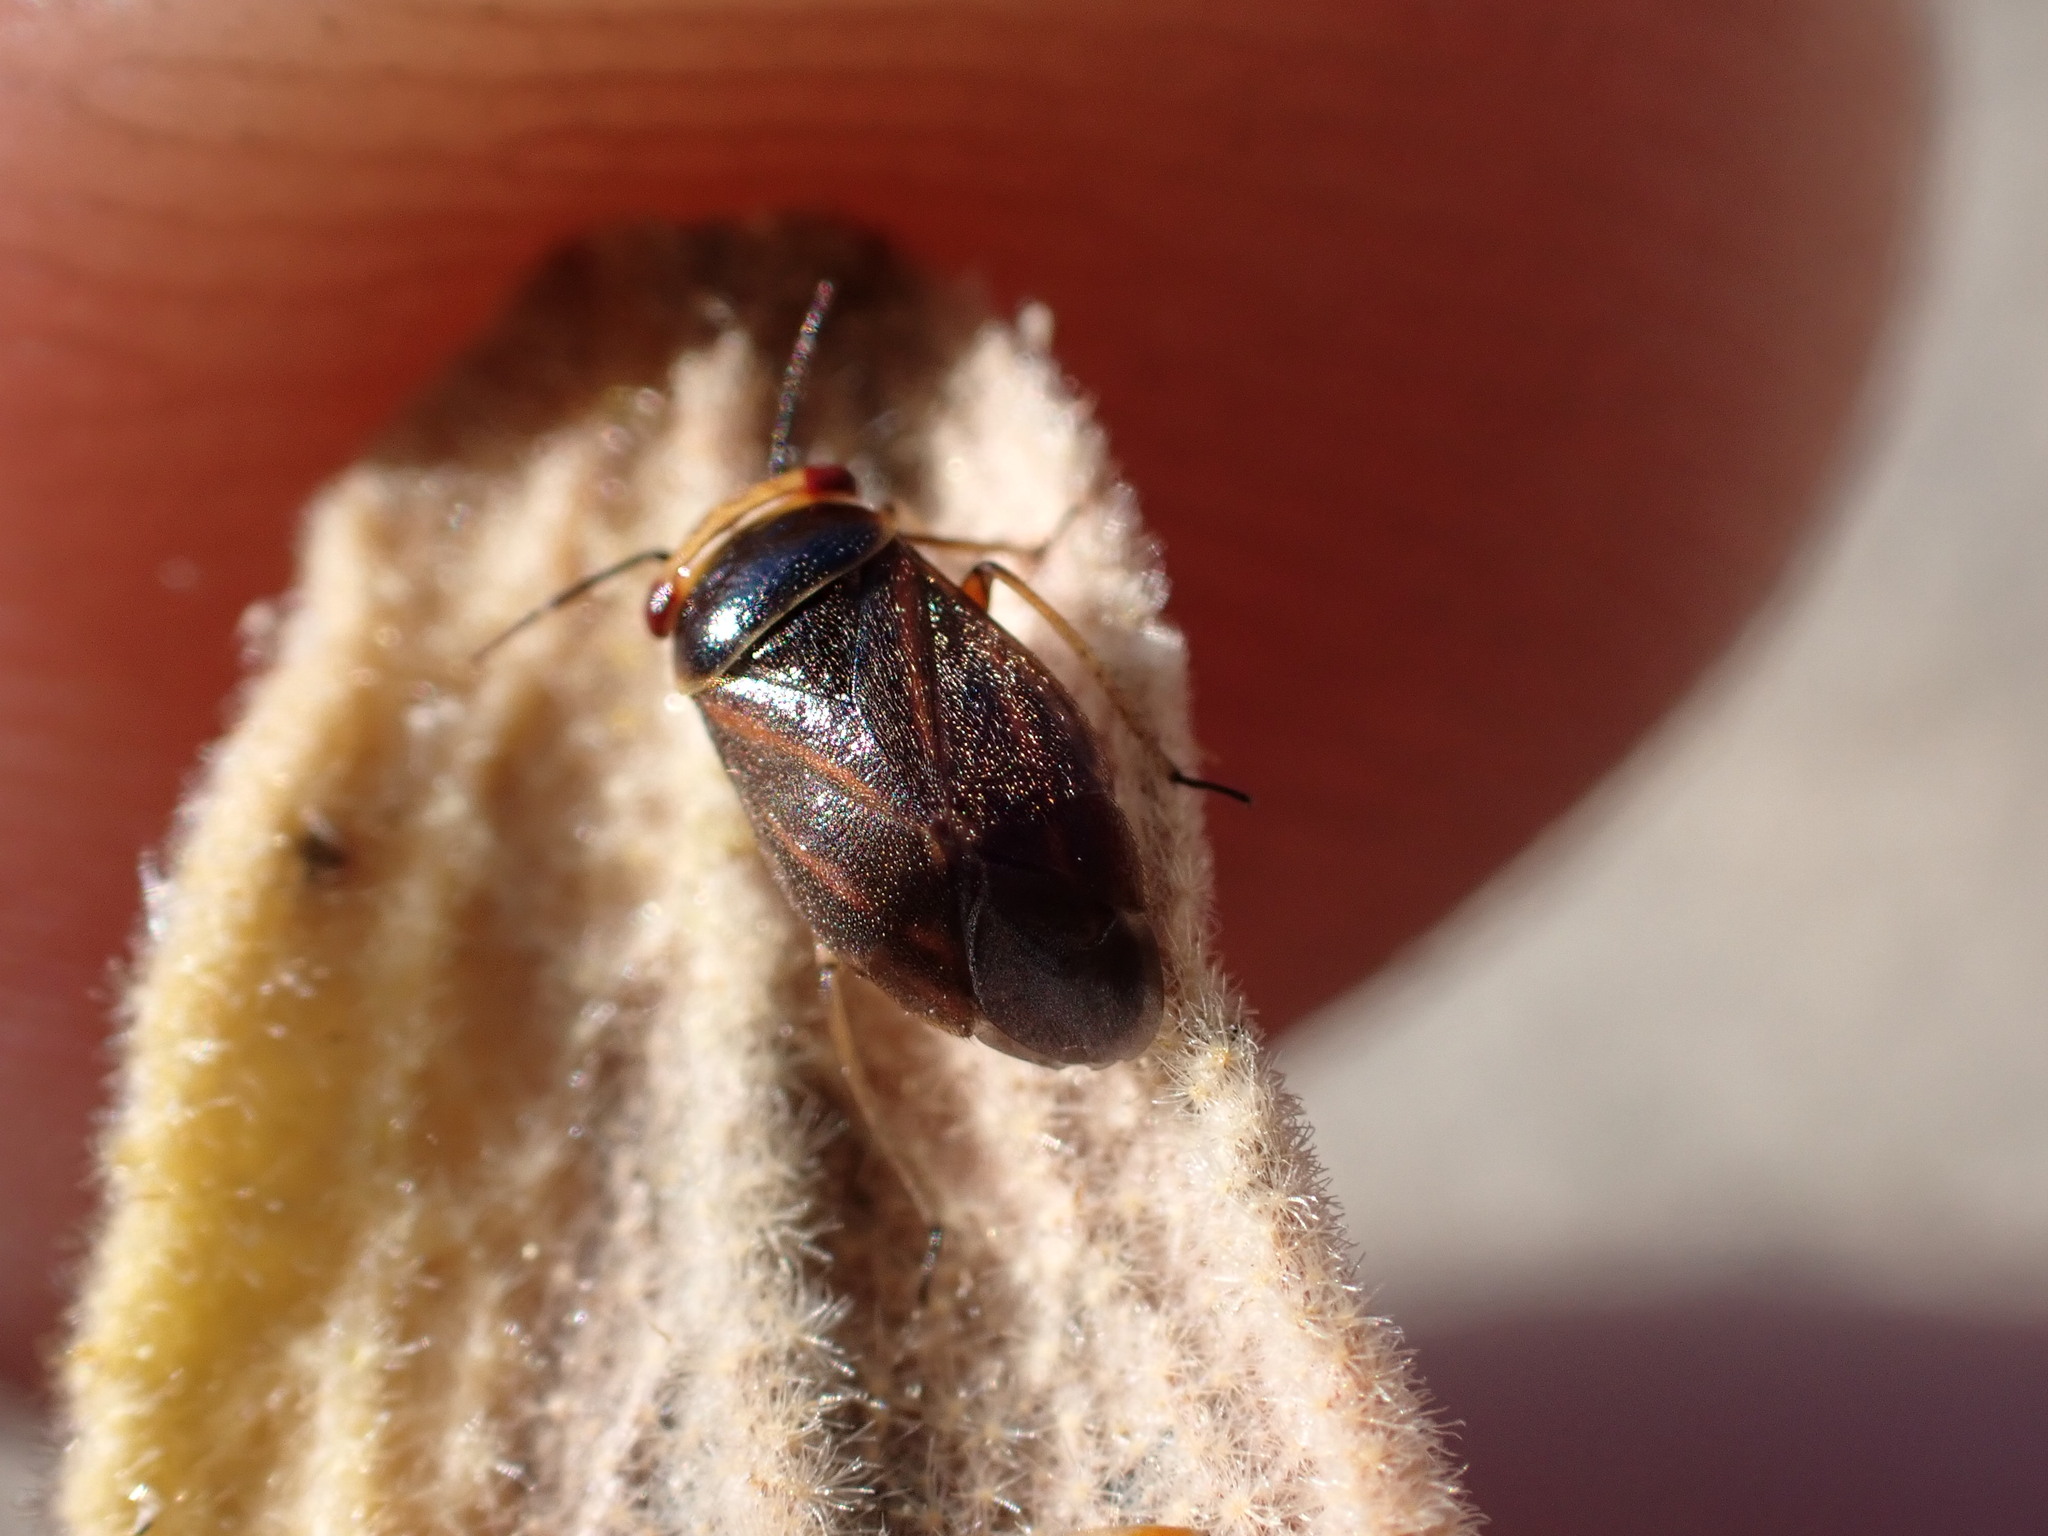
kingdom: Animalia
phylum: Arthropoda
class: Insecta
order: Hemiptera
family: Miridae
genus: Strongylocoris
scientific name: Strongylocoris cicadifrons
